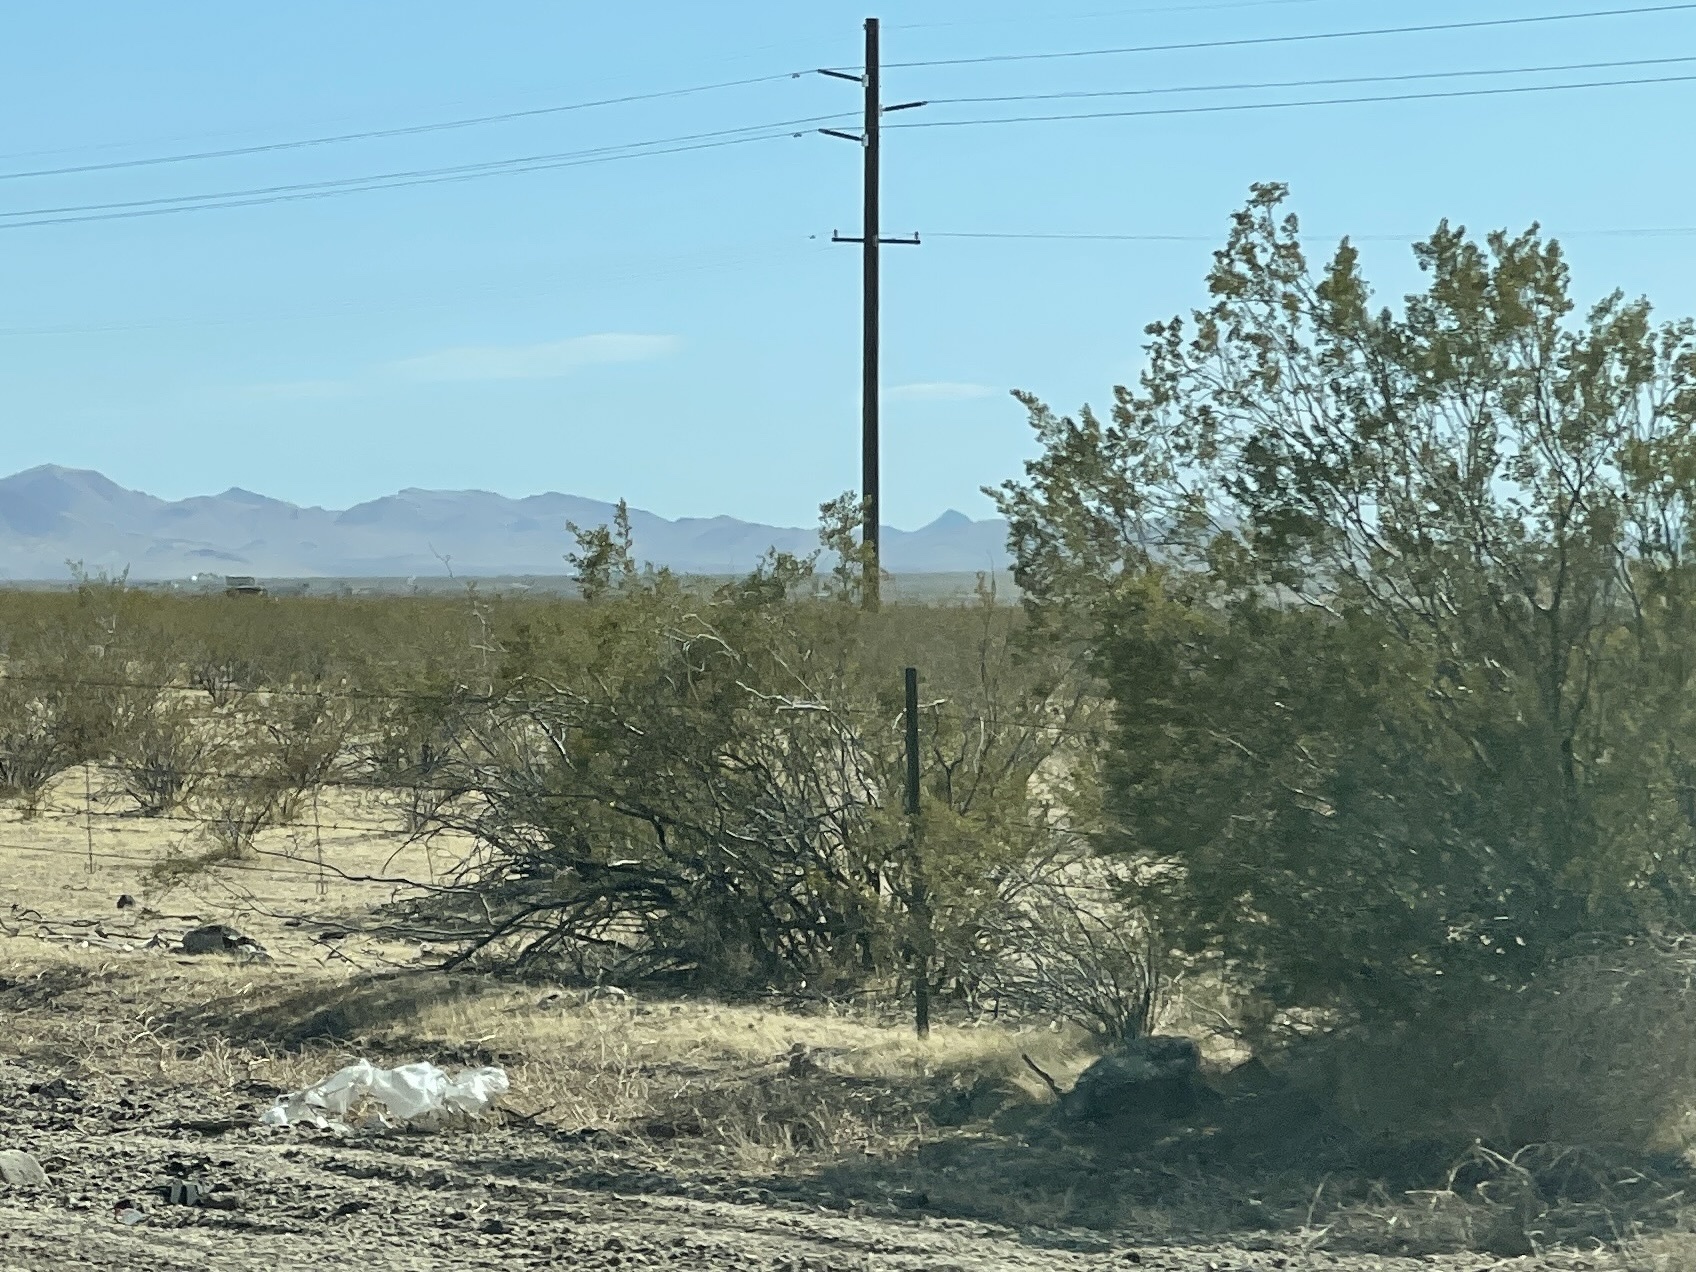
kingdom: Plantae
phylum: Tracheophyta
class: Magnoliopsida
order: Zygophyllales
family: Zygophyllaceae
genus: Larrea
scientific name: Larrea tridentata
